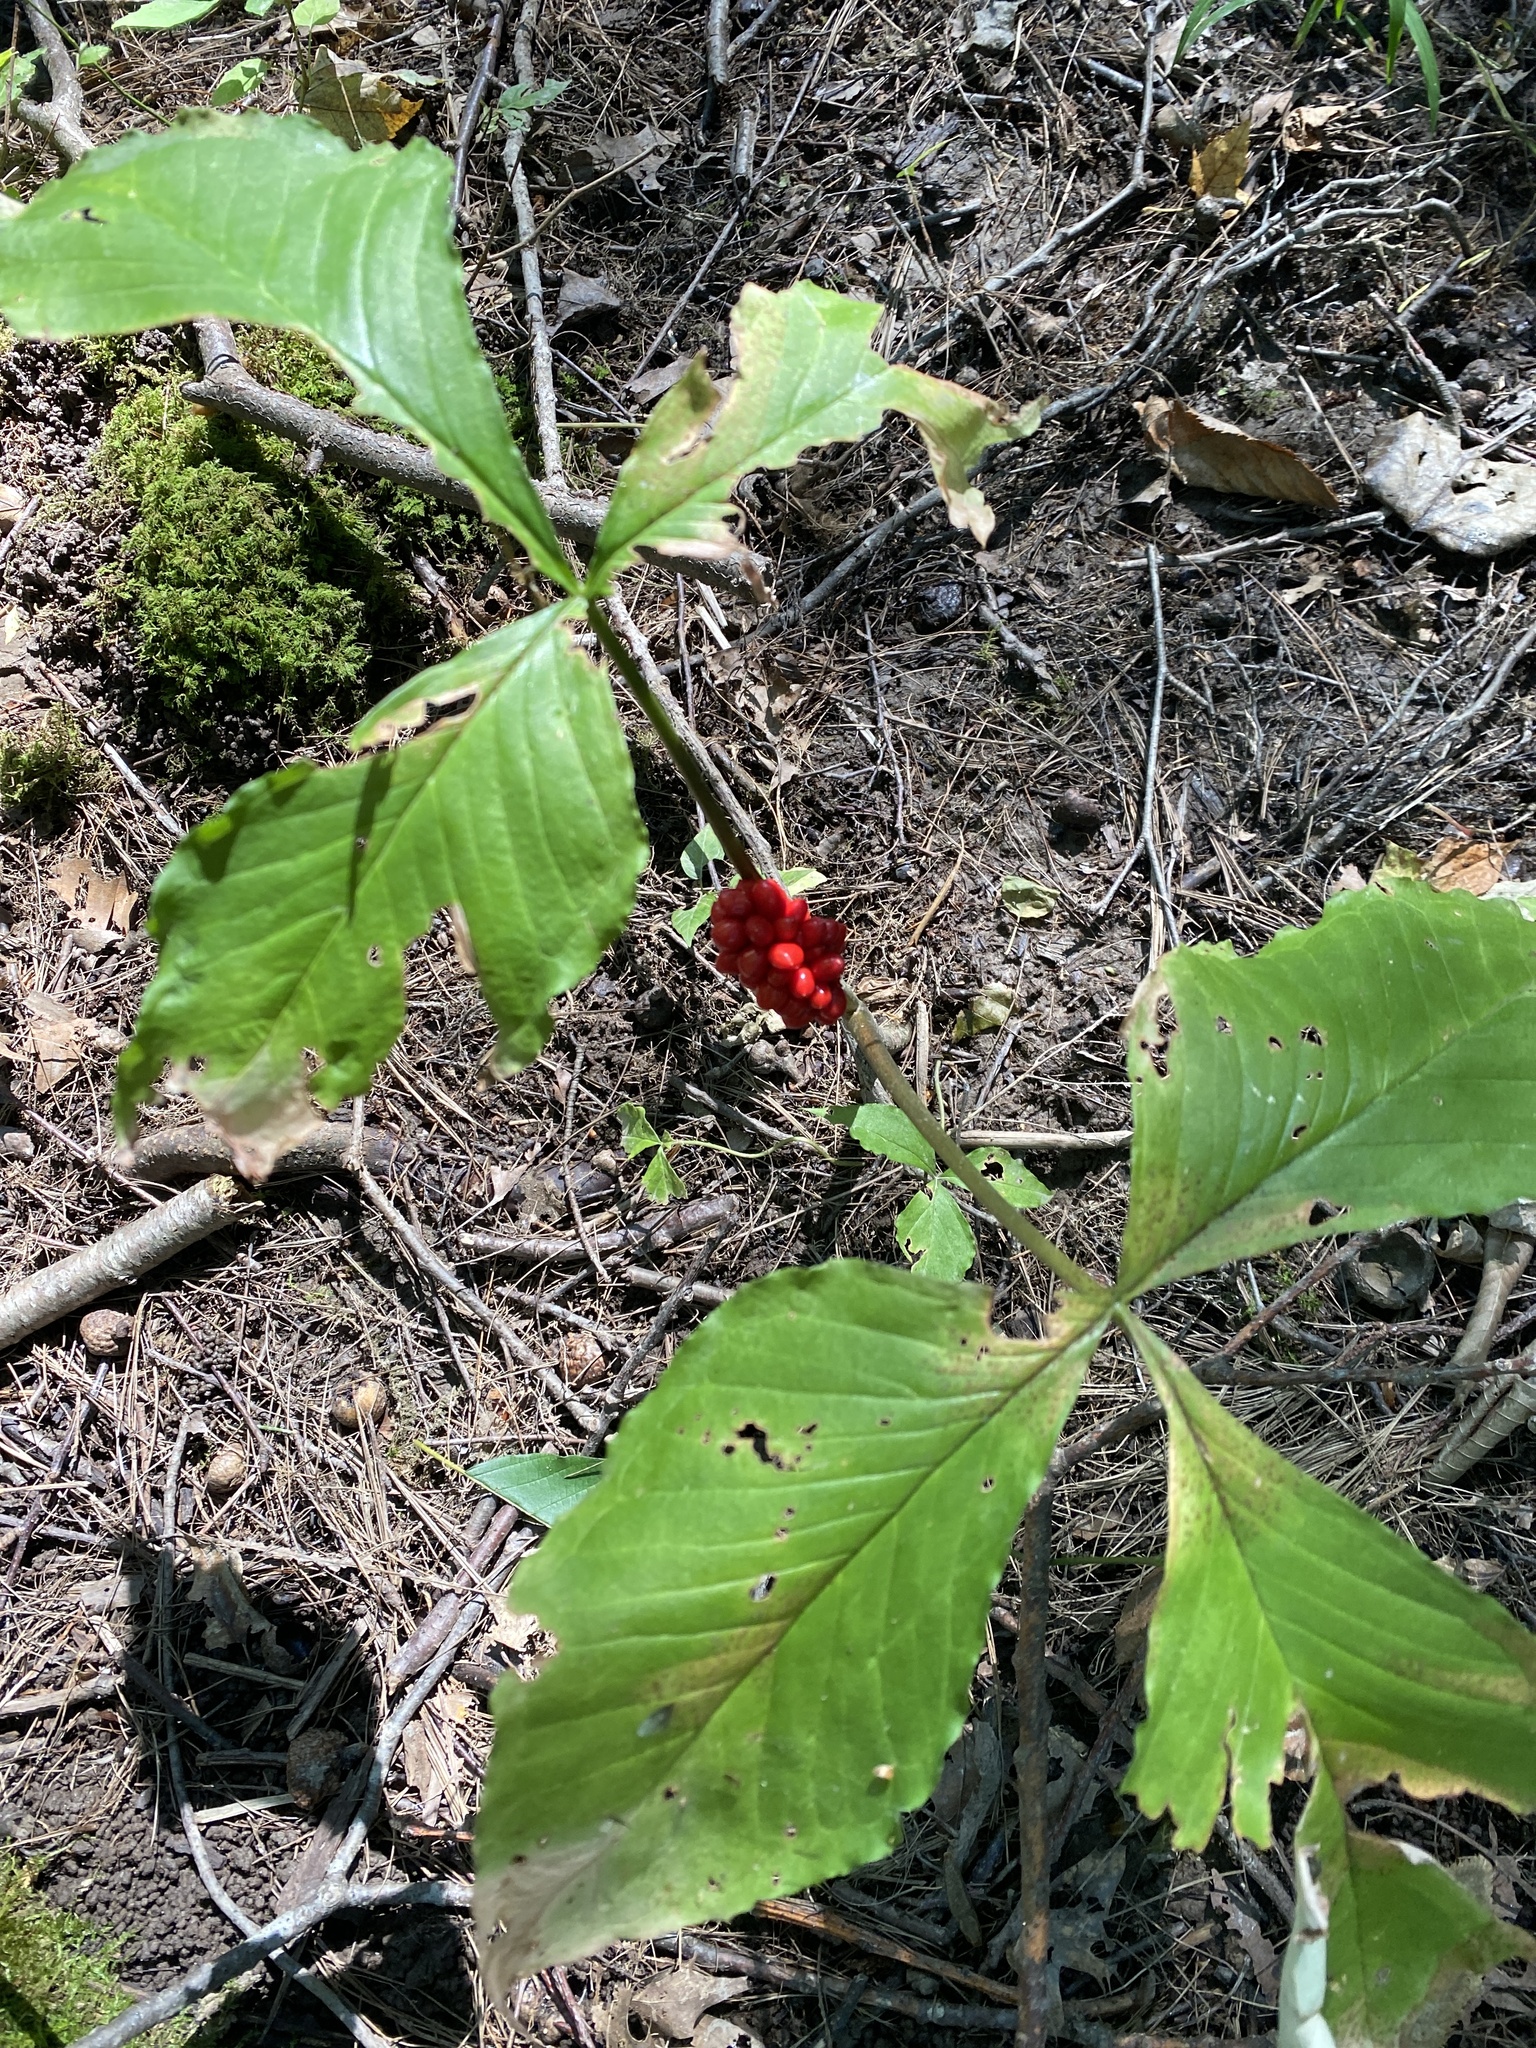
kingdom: Plantae
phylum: Tracheophyta
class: Liliopsida
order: Alismatales
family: Araceae
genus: Arisaema
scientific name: Arisaema triphyllum
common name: Jack-in-the-pulpit
